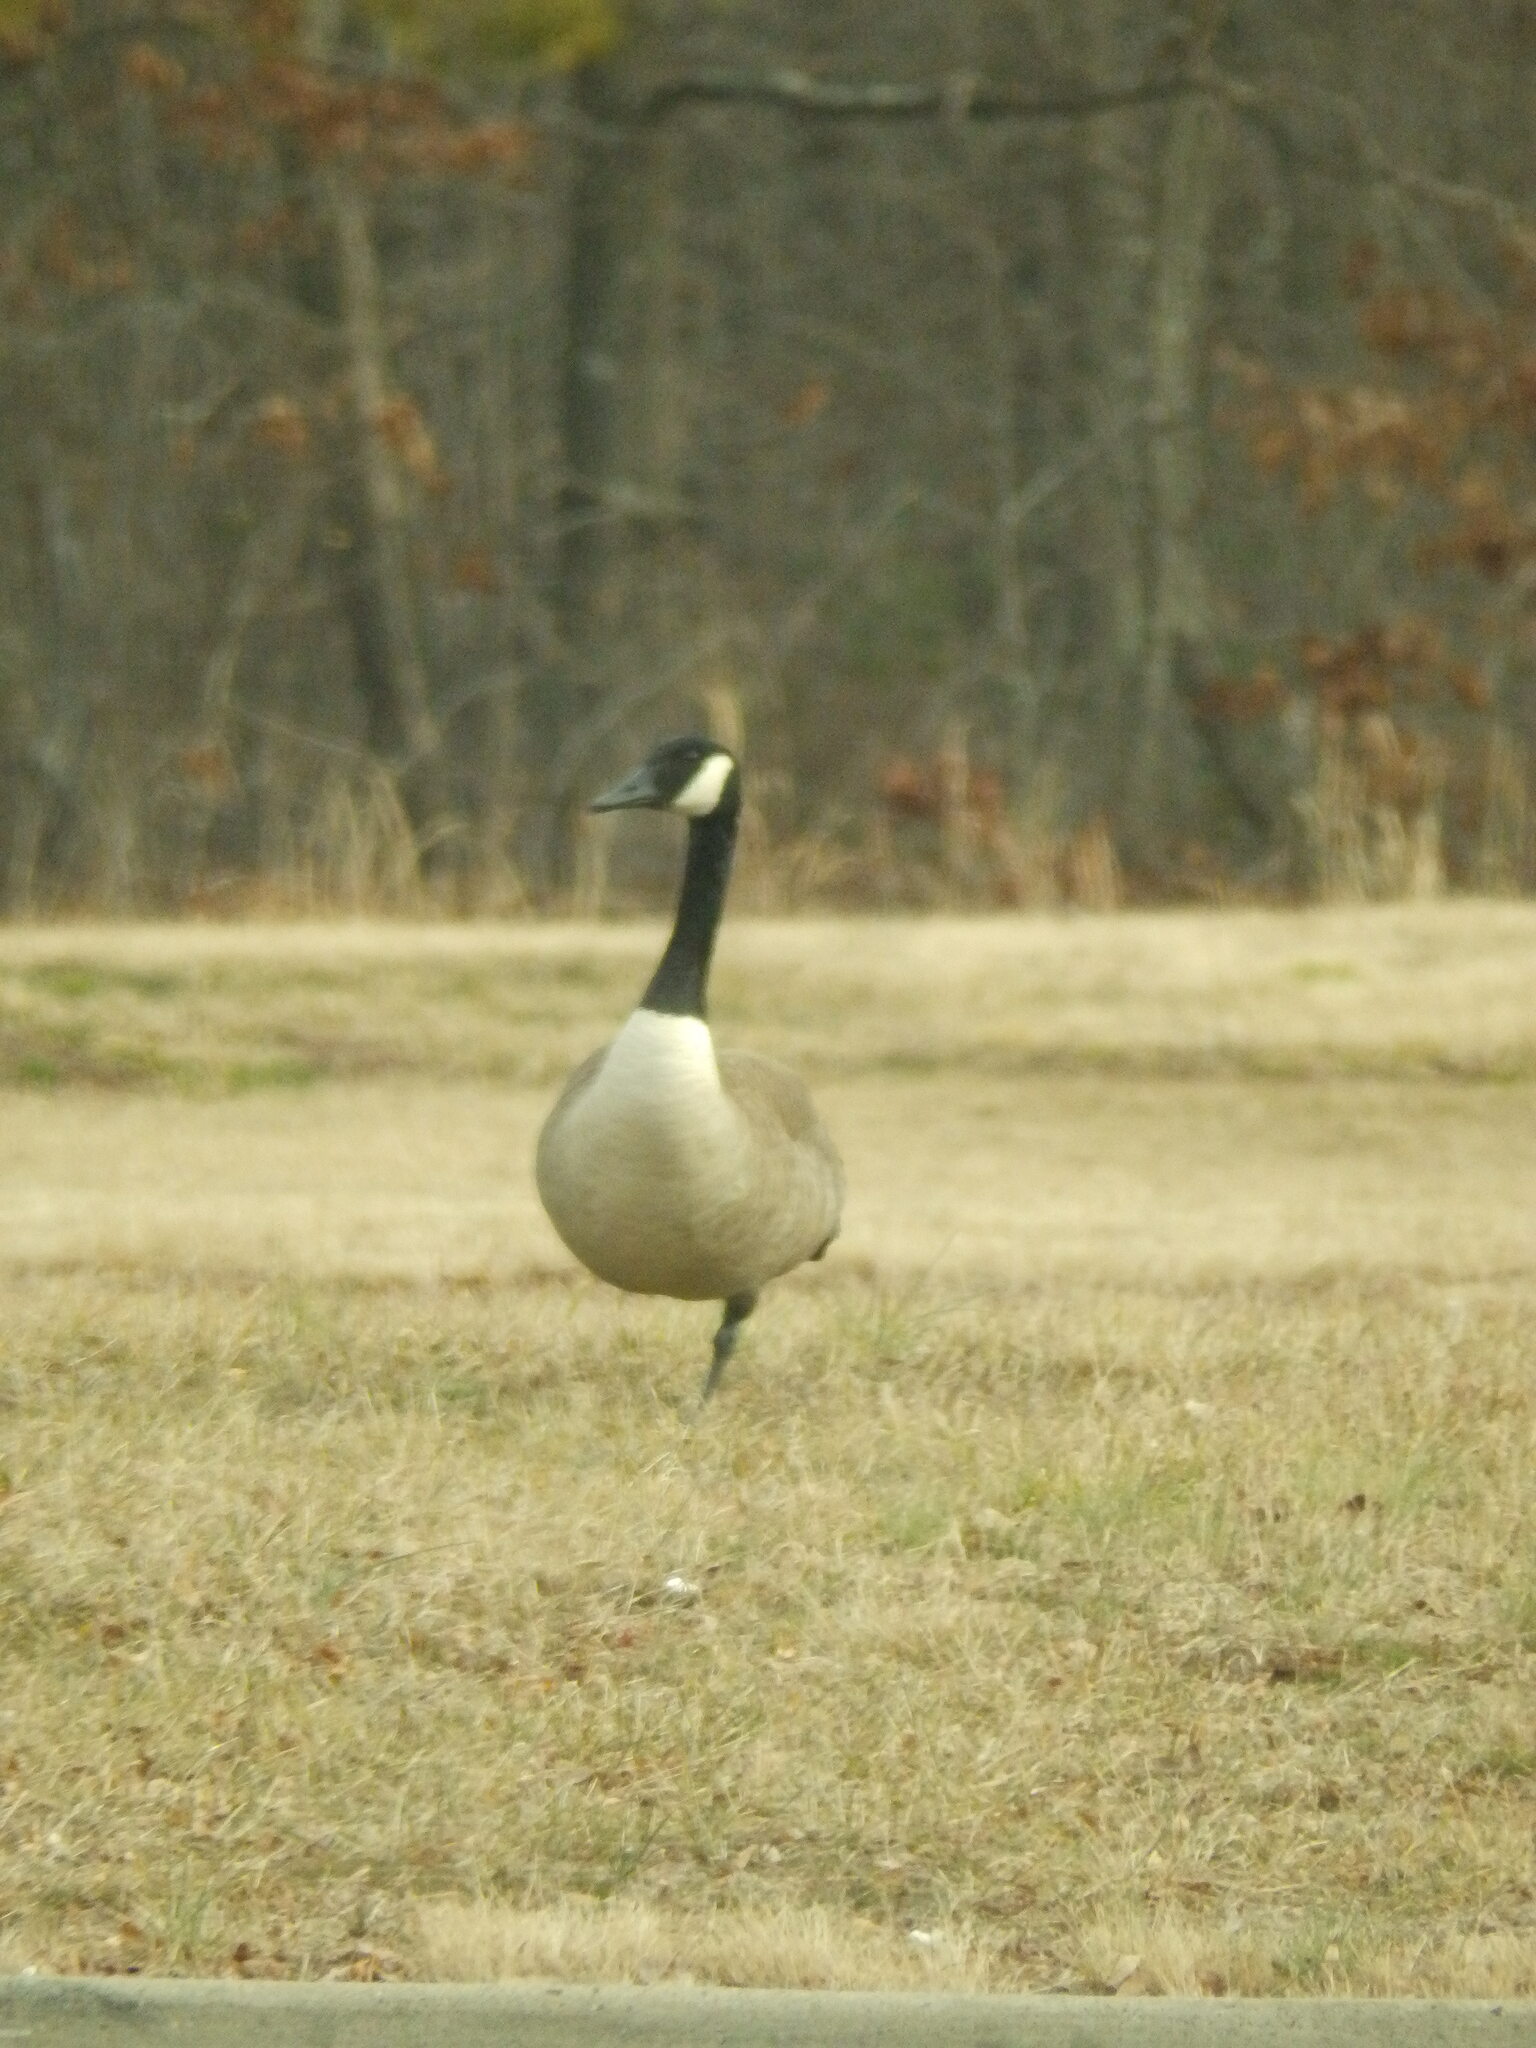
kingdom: Animalia
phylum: Chordata
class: Aves
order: Anseriformes
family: Anatidae
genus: Branta
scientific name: Branta canadensis
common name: Canada goose
